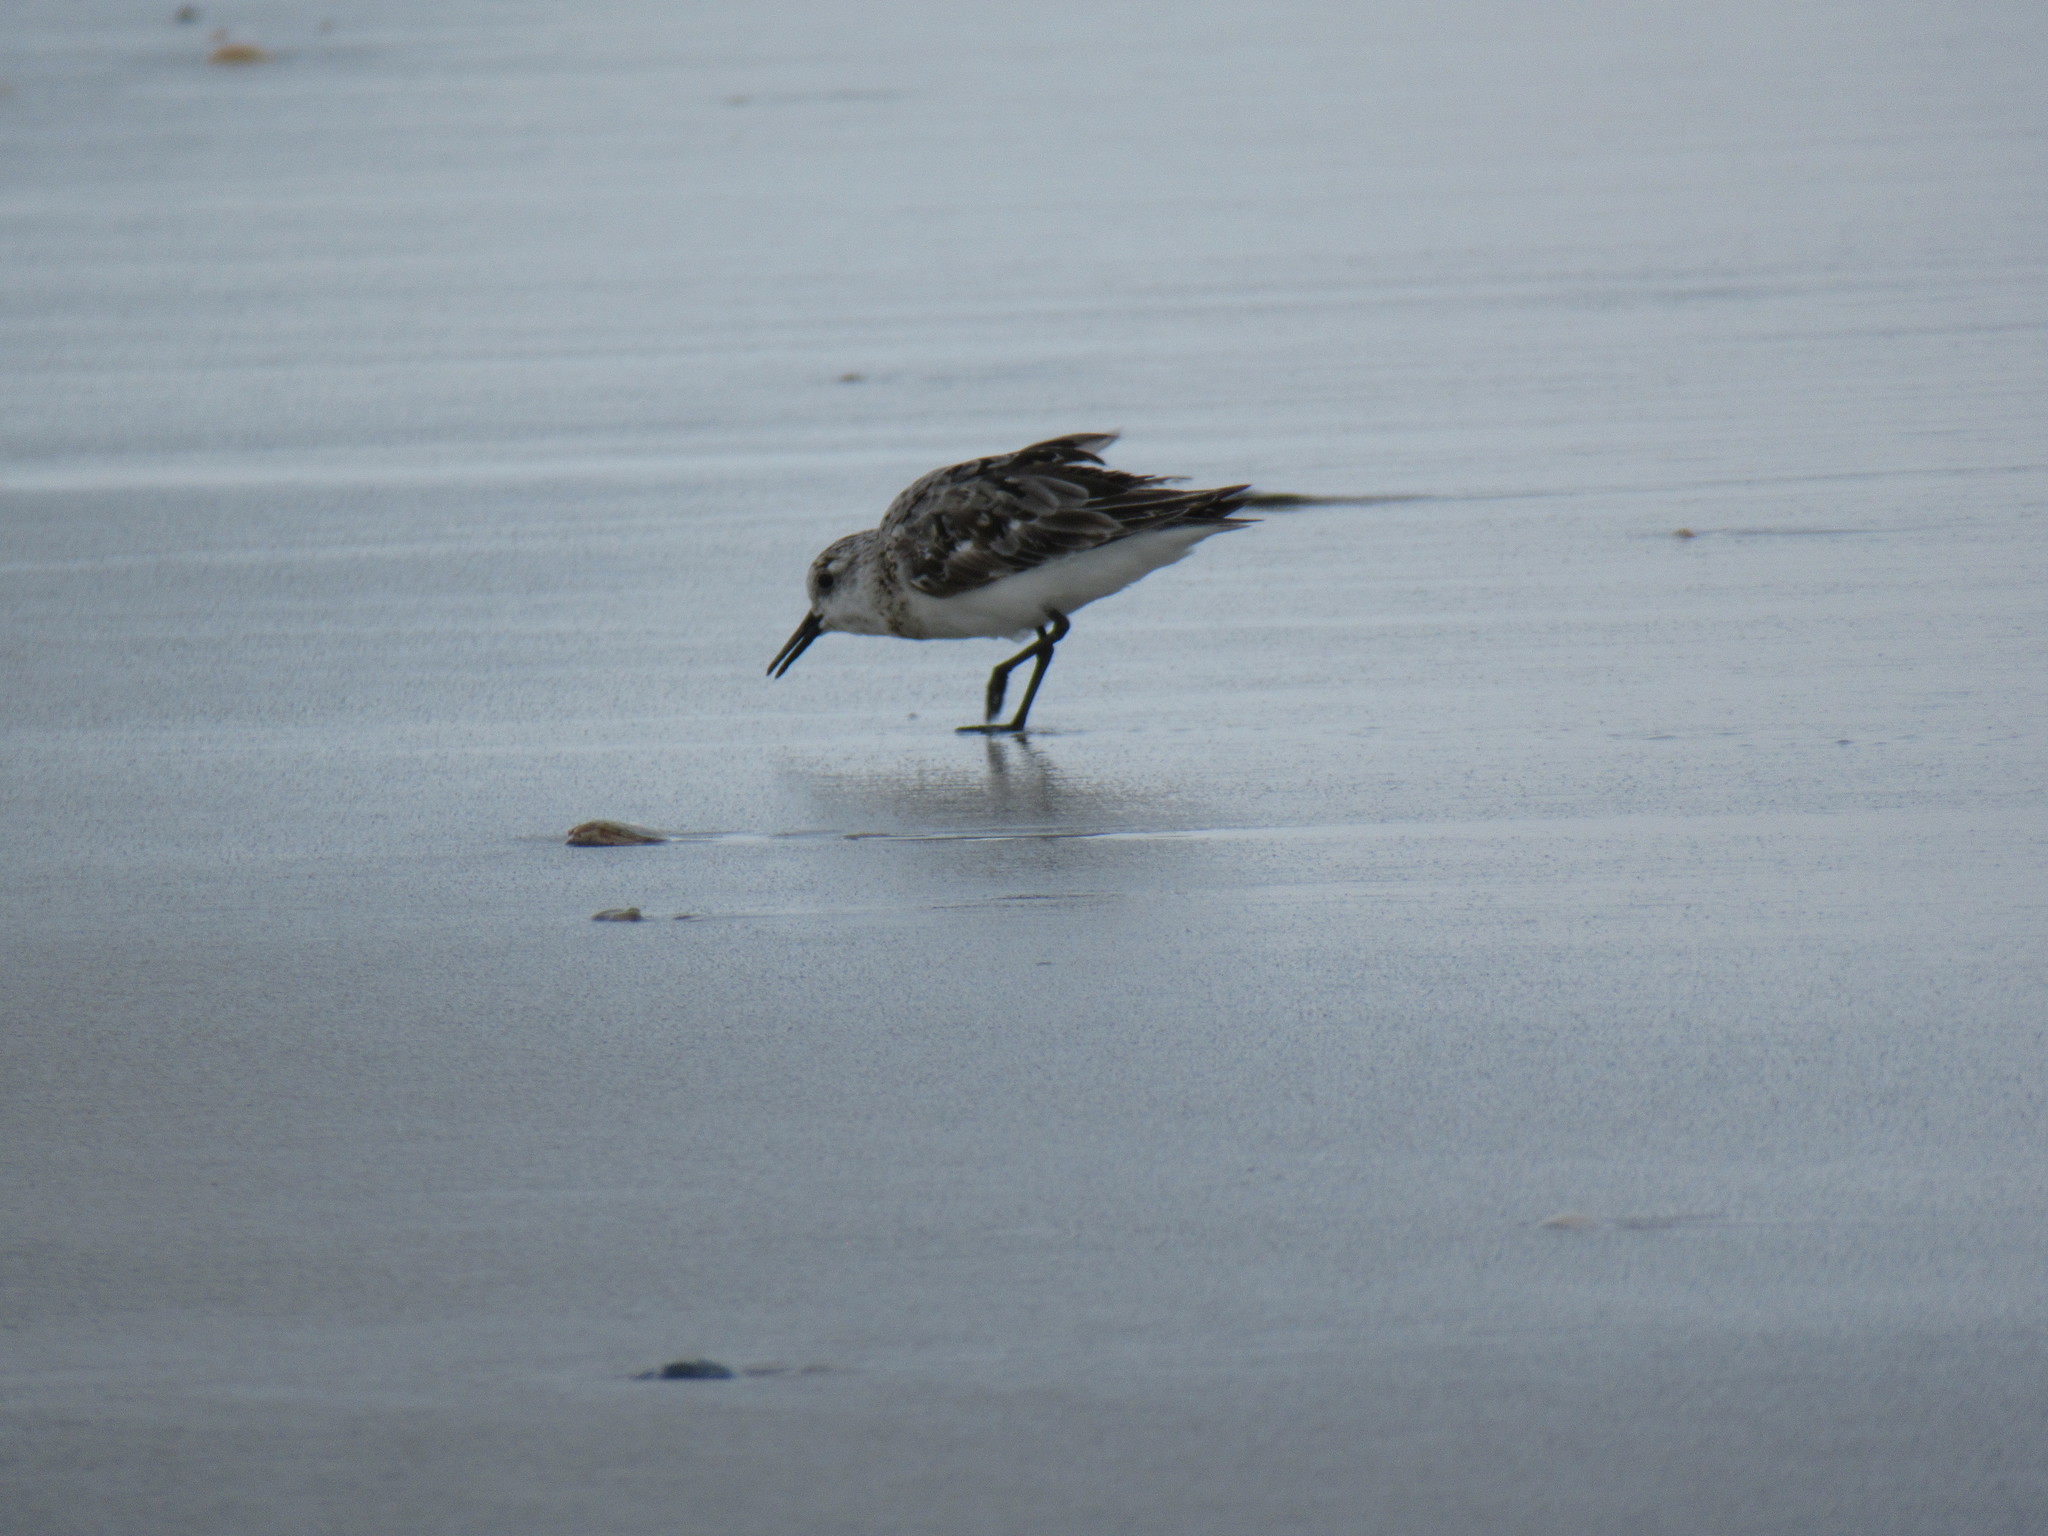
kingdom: Animalia
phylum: Chordata
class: Aves
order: Charadriiformes
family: Scolopacidae
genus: Calidris
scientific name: Calidris alba
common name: Sanderling
